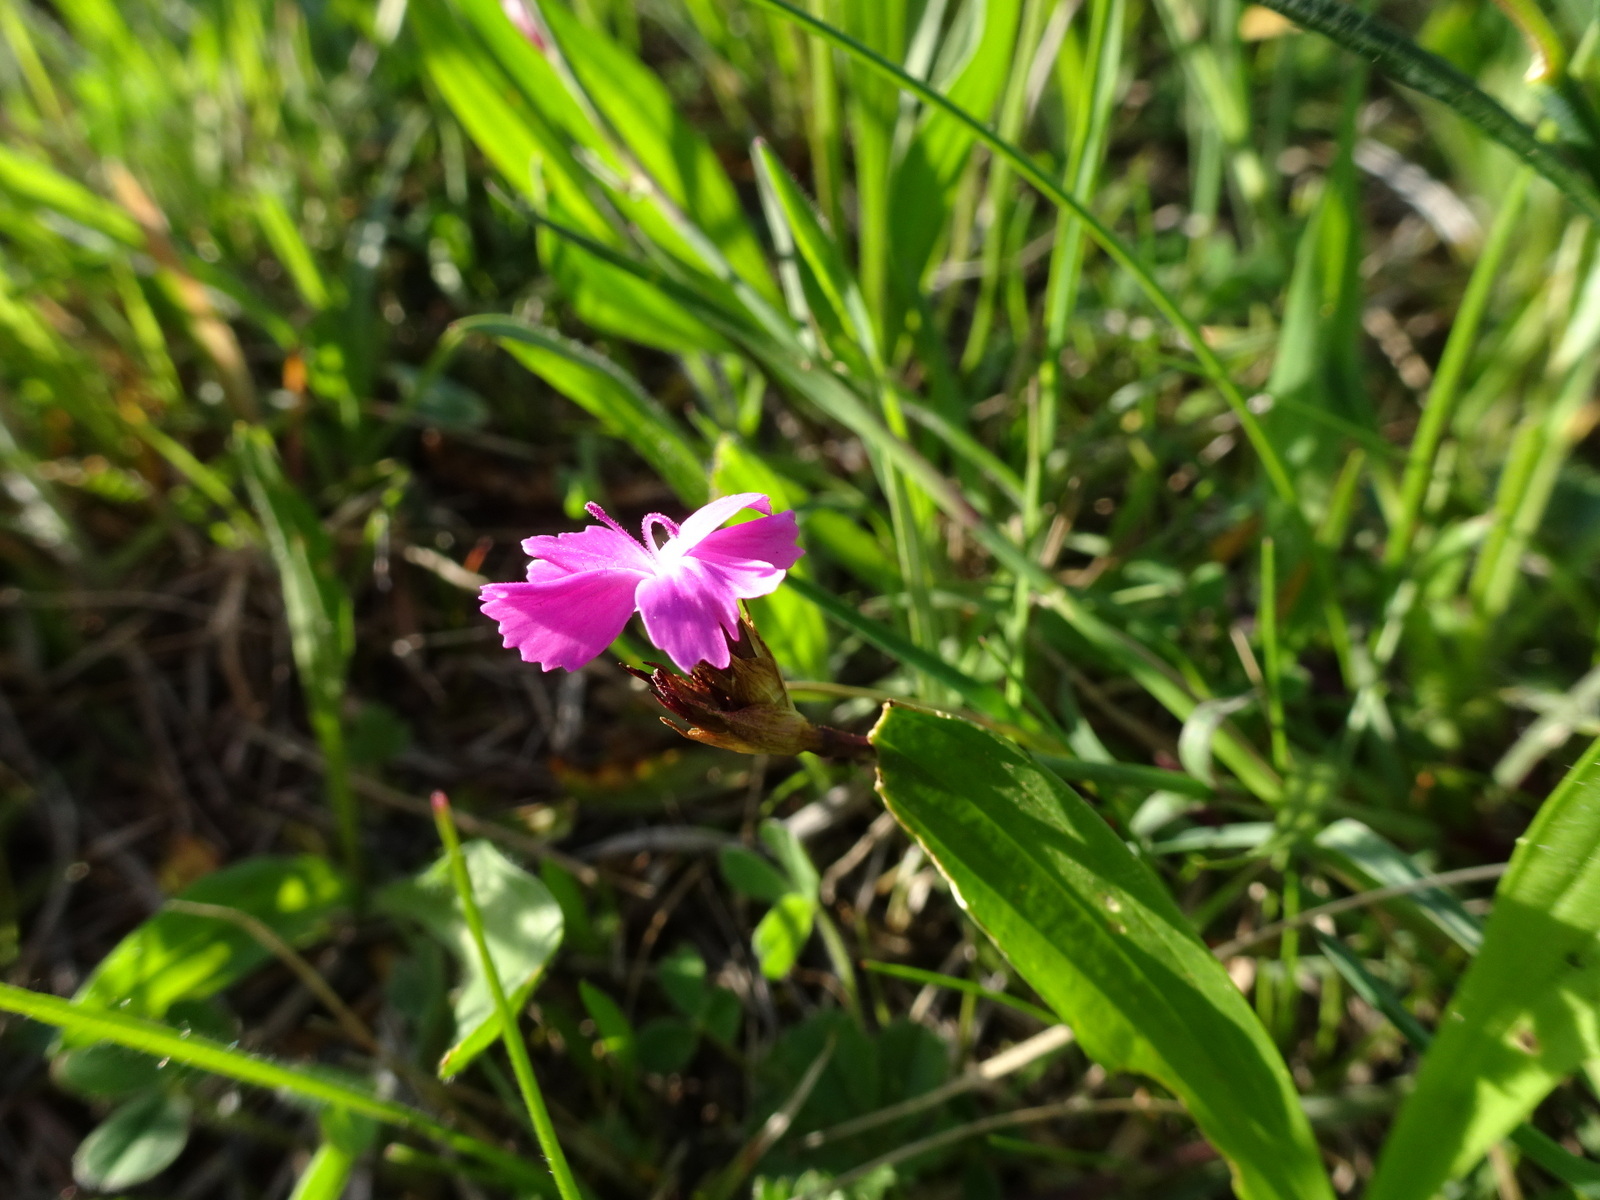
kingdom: Plantae
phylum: Tracheophyta
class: Magnoliopsida
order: Caryophyllales
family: Caryophyllaceae
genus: Dianthus
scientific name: Dianthus carthusianorum
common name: Carthusian pink
